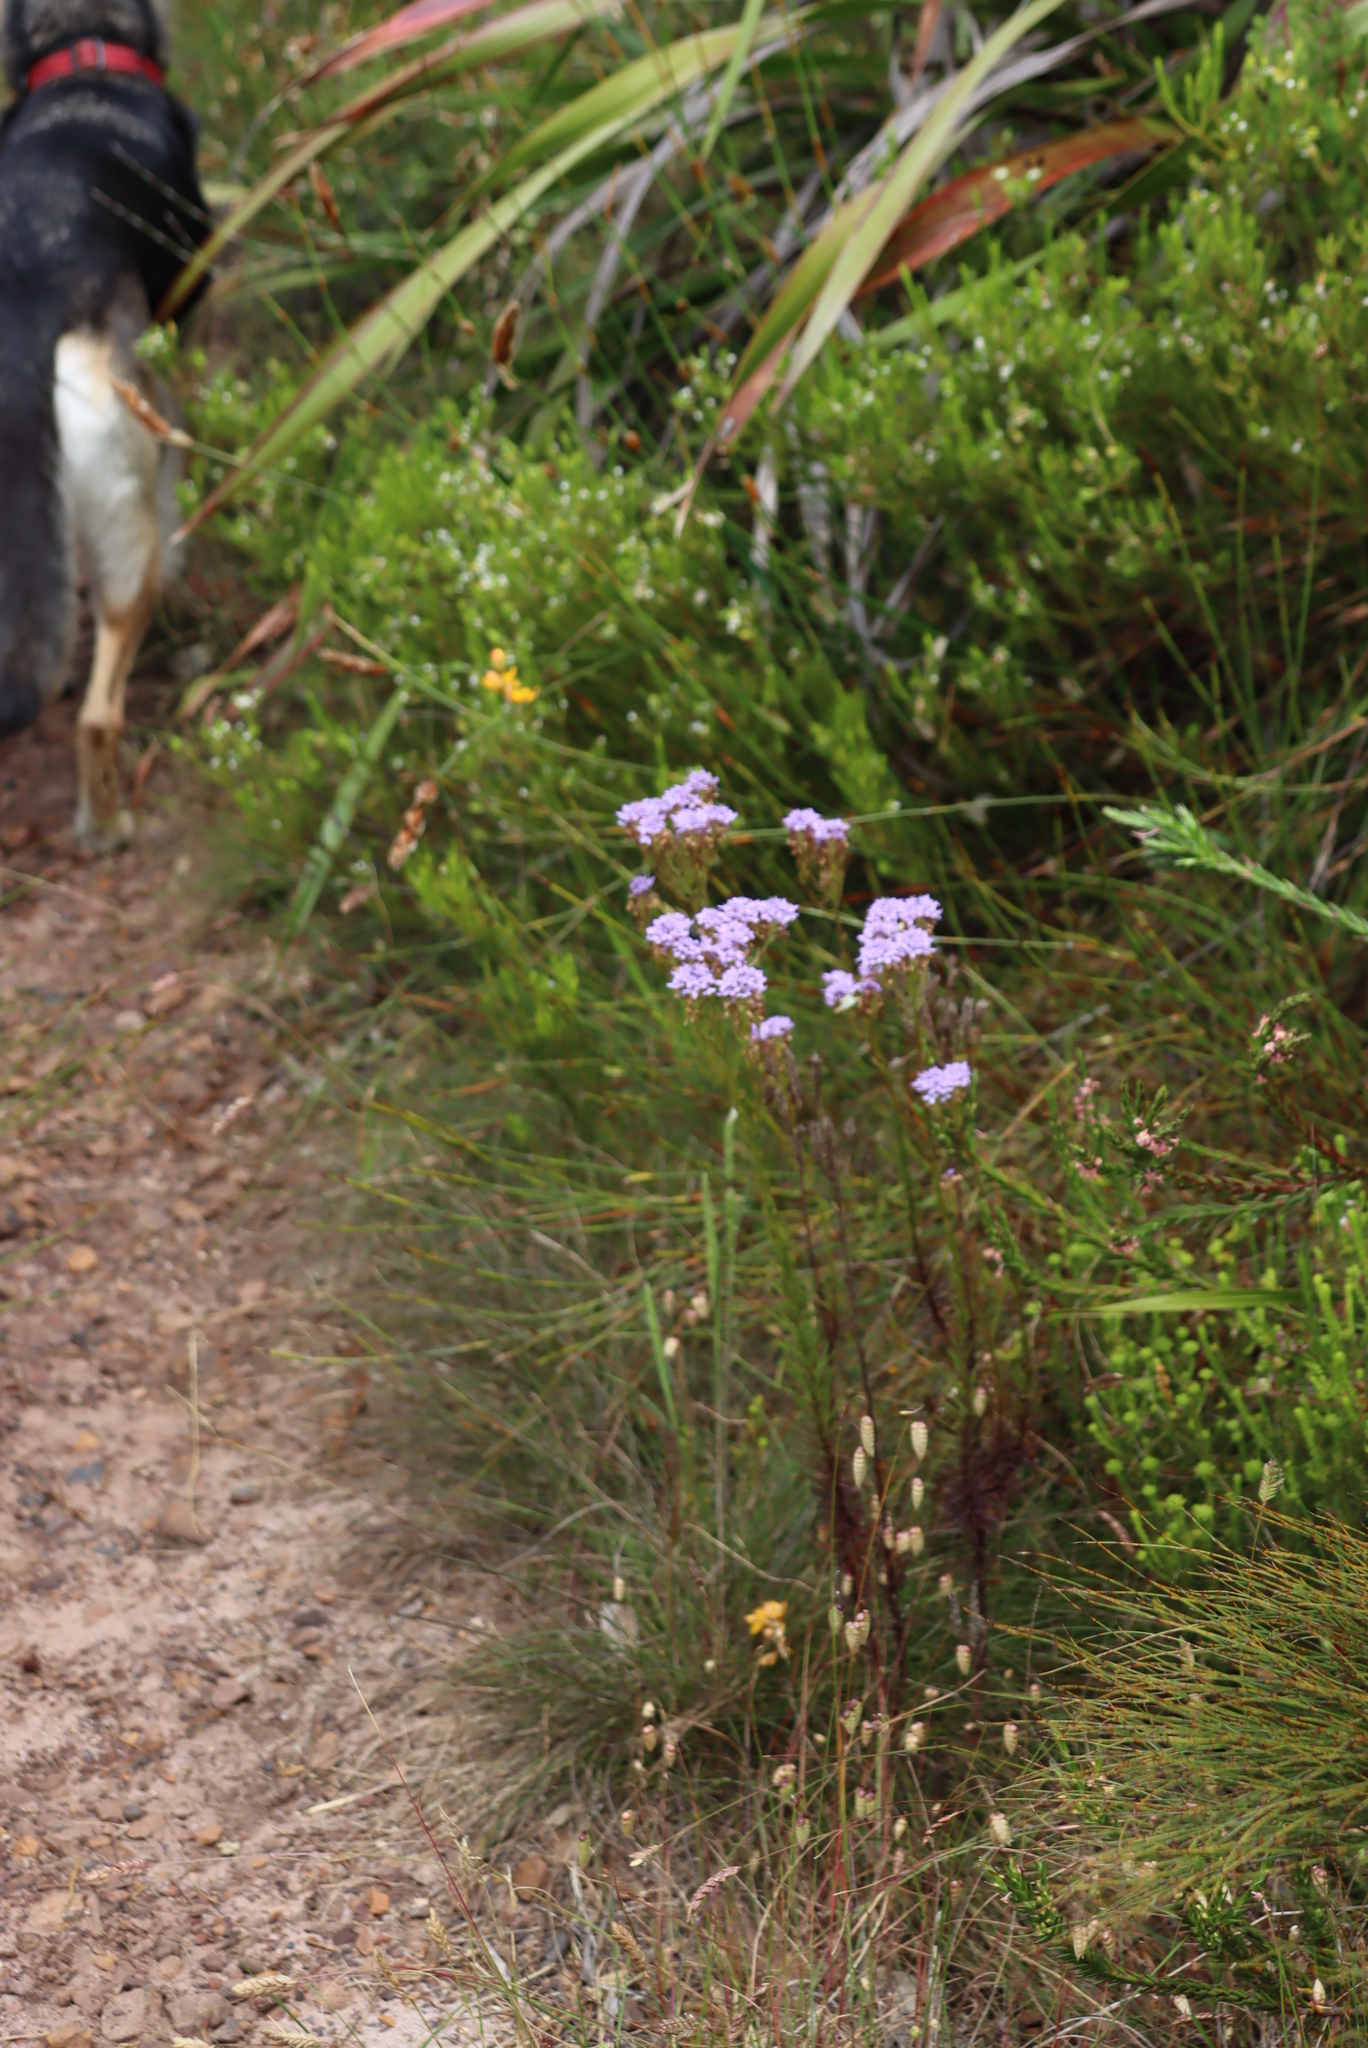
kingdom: Plantae
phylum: Tracheophyta
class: Magnoliopsida
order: Lamiales
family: Scrophulariaceae
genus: Pseudoselago
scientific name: Pseudoselago spuria
